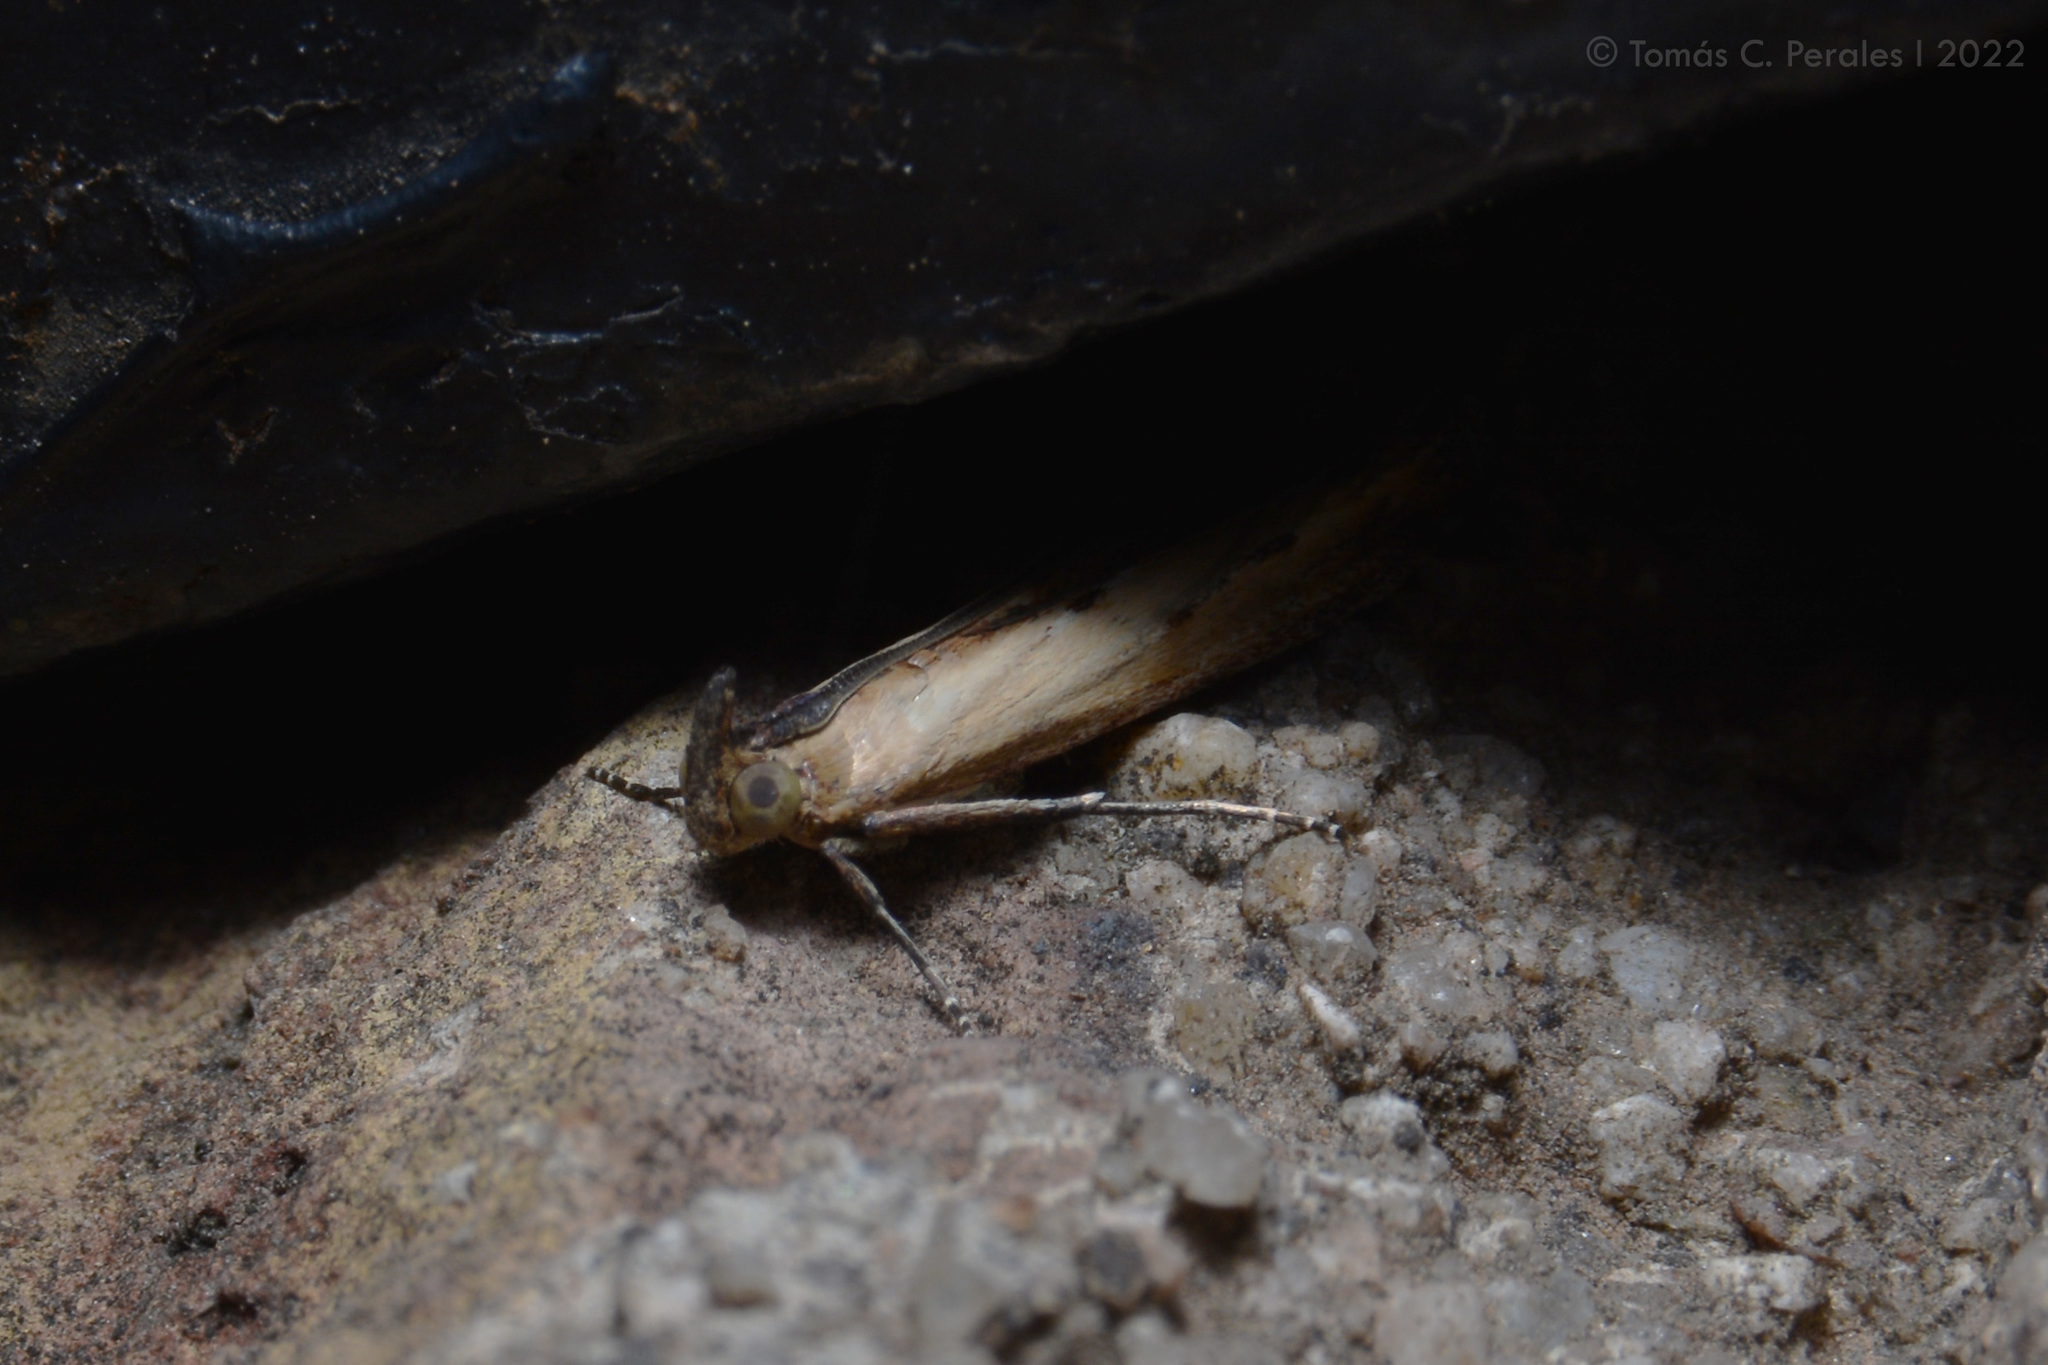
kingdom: Animalia
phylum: Arthropoda
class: Insecta
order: Lepidoptera
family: Pyralidae
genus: Elasmopalpus
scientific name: Elasmopalpus lignosella
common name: Lesser cornstalk borer
